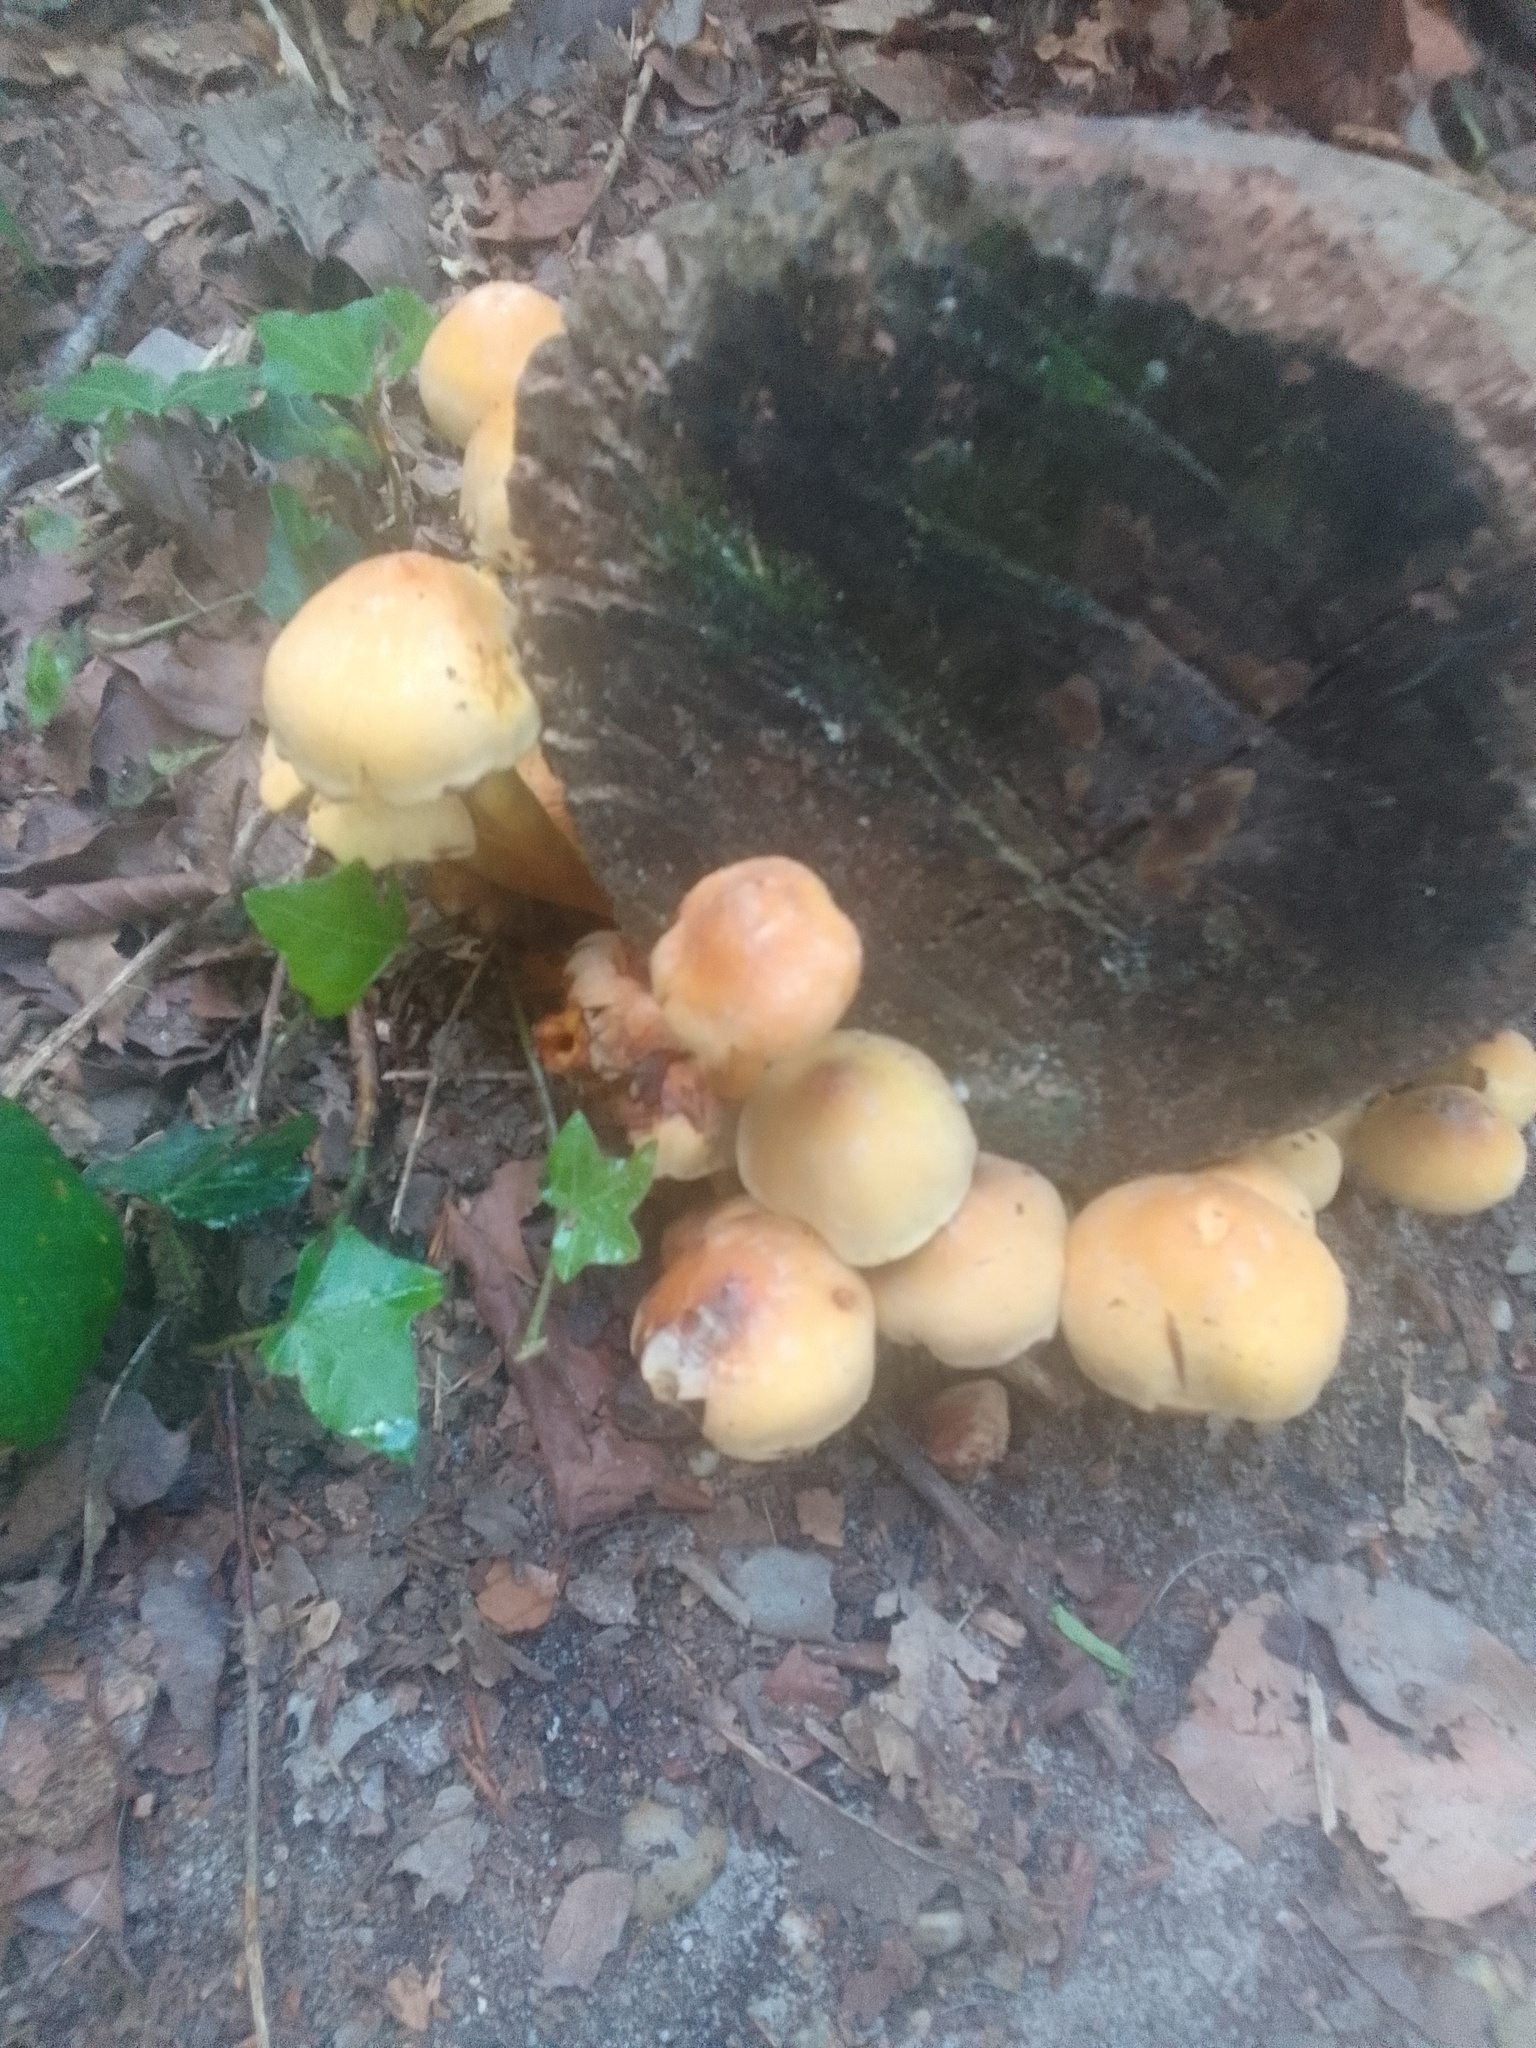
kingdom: Fungi
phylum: Basidiomycota
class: Agaricomycetes
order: Agaricales
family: Strophariaceae
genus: Hypholoma
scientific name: Hypholoma fasciculare
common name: Sulphur tuft
